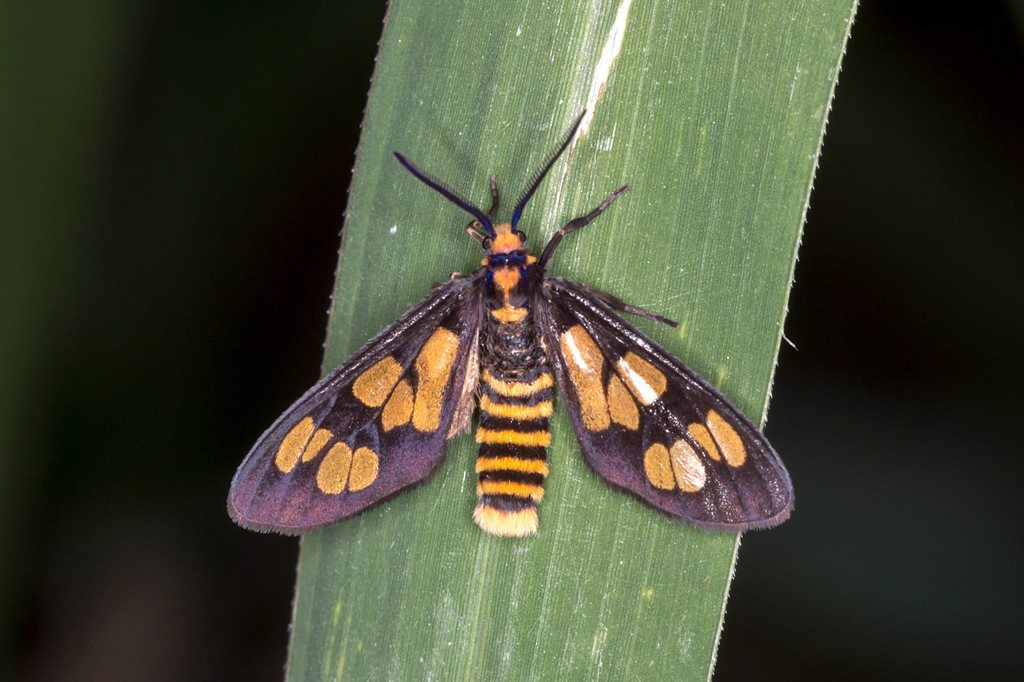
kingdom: Animalia
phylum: Arthropoda
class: Insecta
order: Lepidoptera
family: Erebidae
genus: Eressa
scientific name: Eressa geographica
